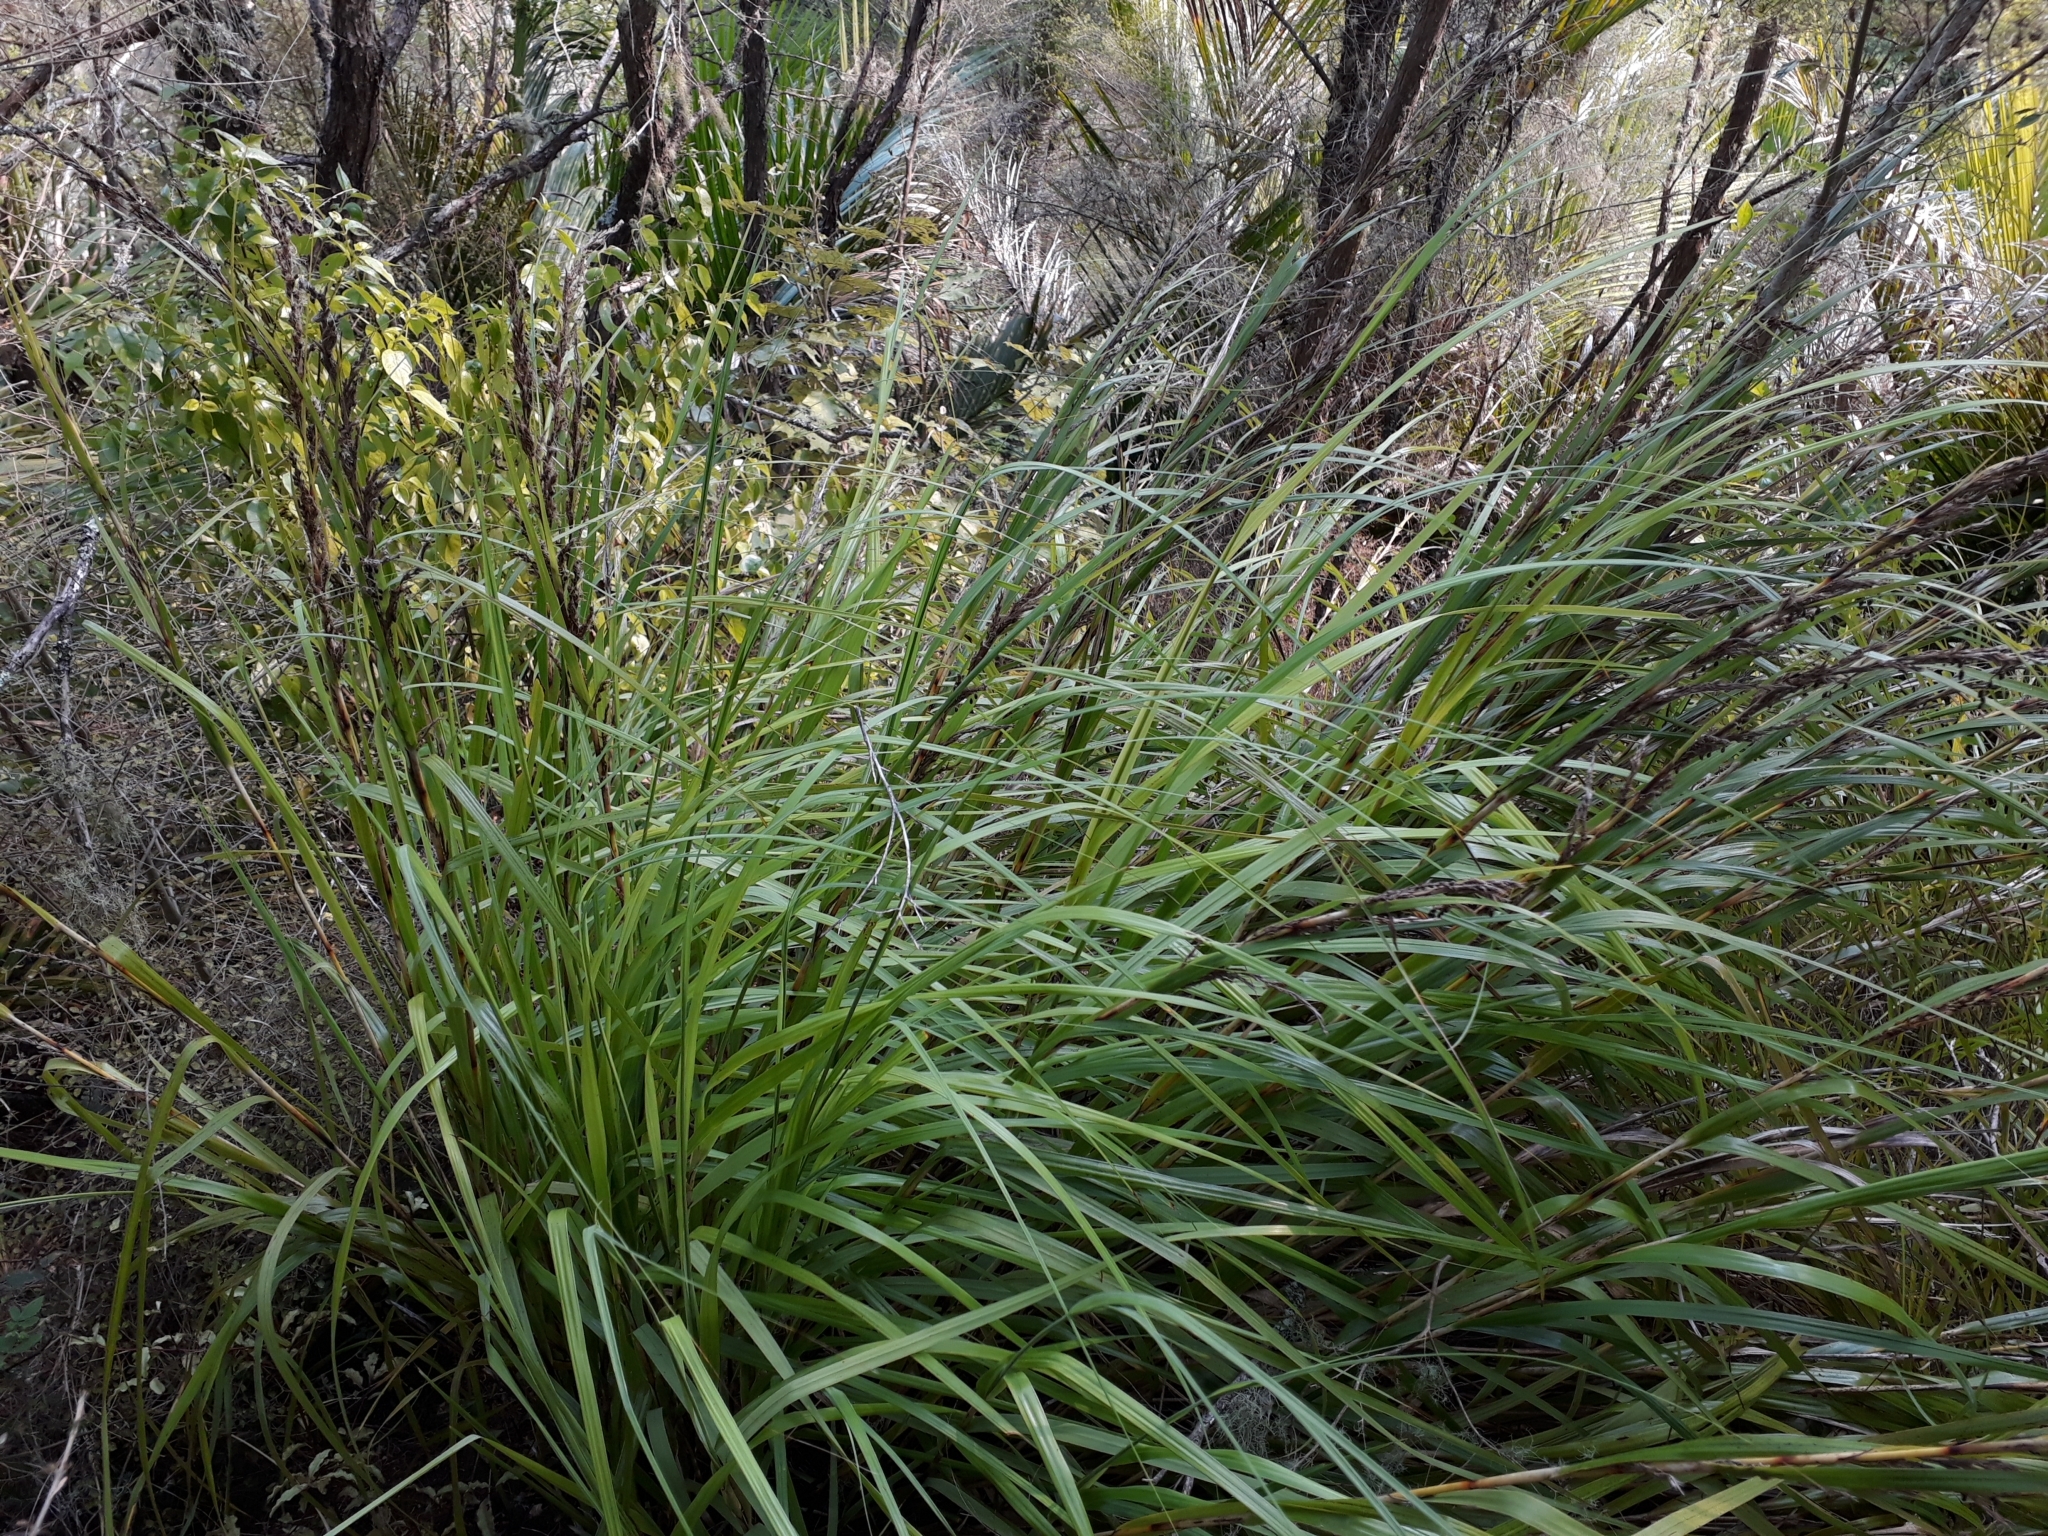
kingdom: Plantae
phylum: Tracheophyta
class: Liliopsida
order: Poales
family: Cyperaceae
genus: Gahnia
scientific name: Gahnia lacera
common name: Sawsedge
